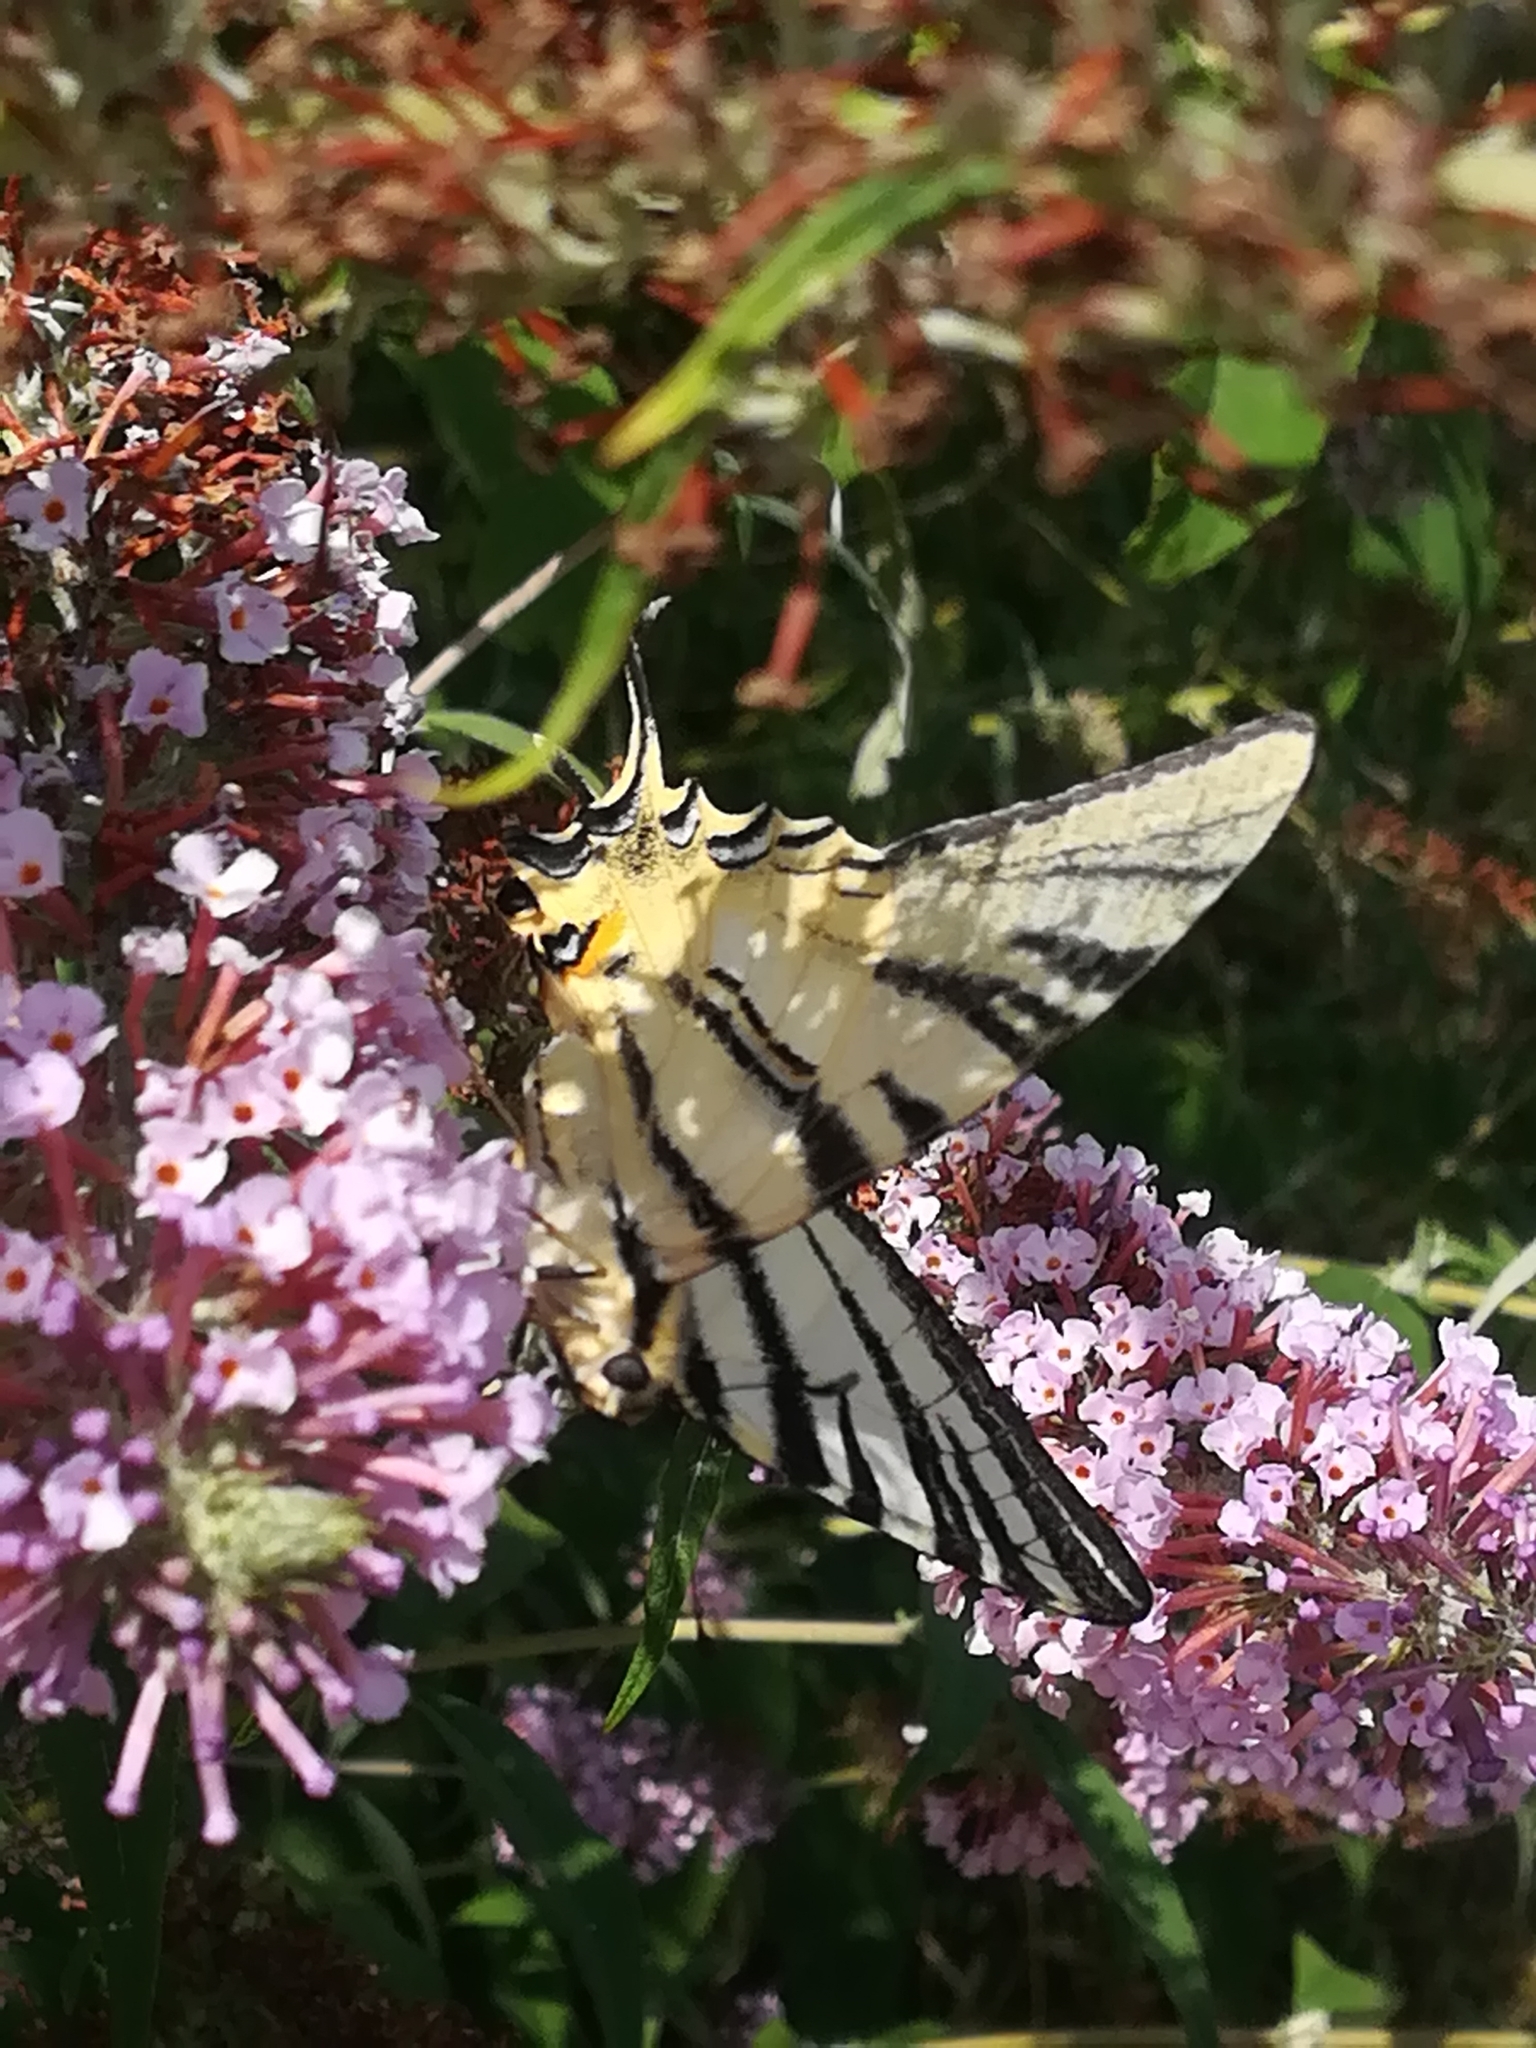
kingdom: Animalia
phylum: Arthropoda
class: Insecta
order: Lepidoptera
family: Papilionidae
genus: Iphiclides
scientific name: Iphiclides podalirius
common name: Scarce swallowtail
